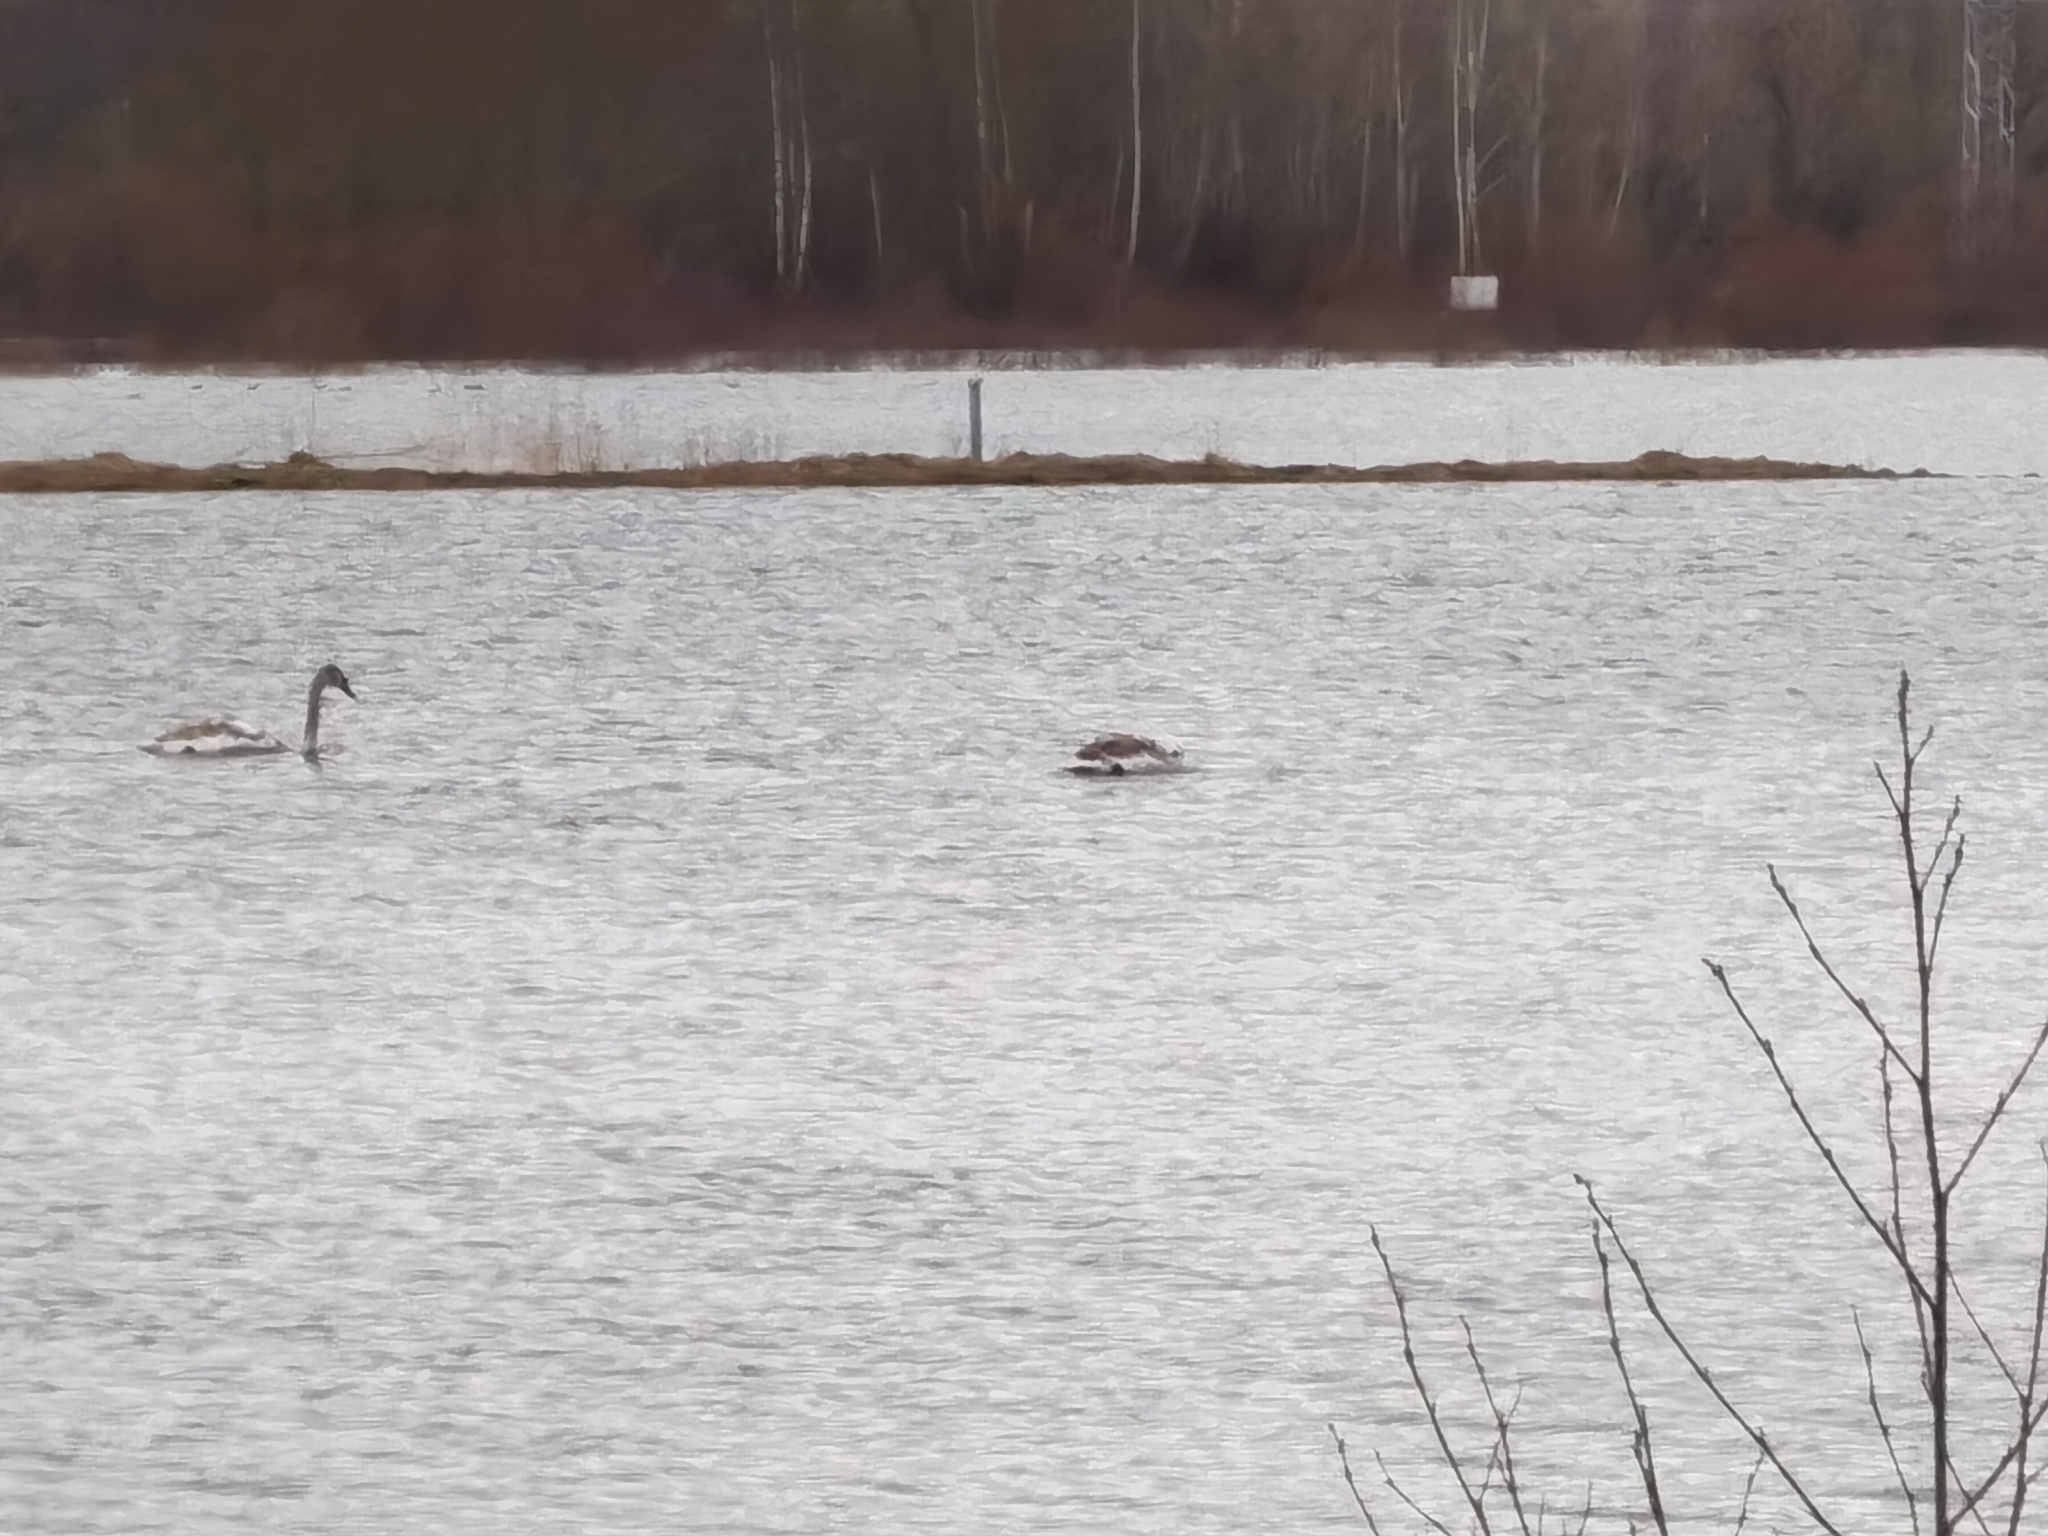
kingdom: Animalia
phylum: Chordata
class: Aves
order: Anseriformes
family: Anatidae
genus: Cygnus
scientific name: Cygnus olor
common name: Mute swan
